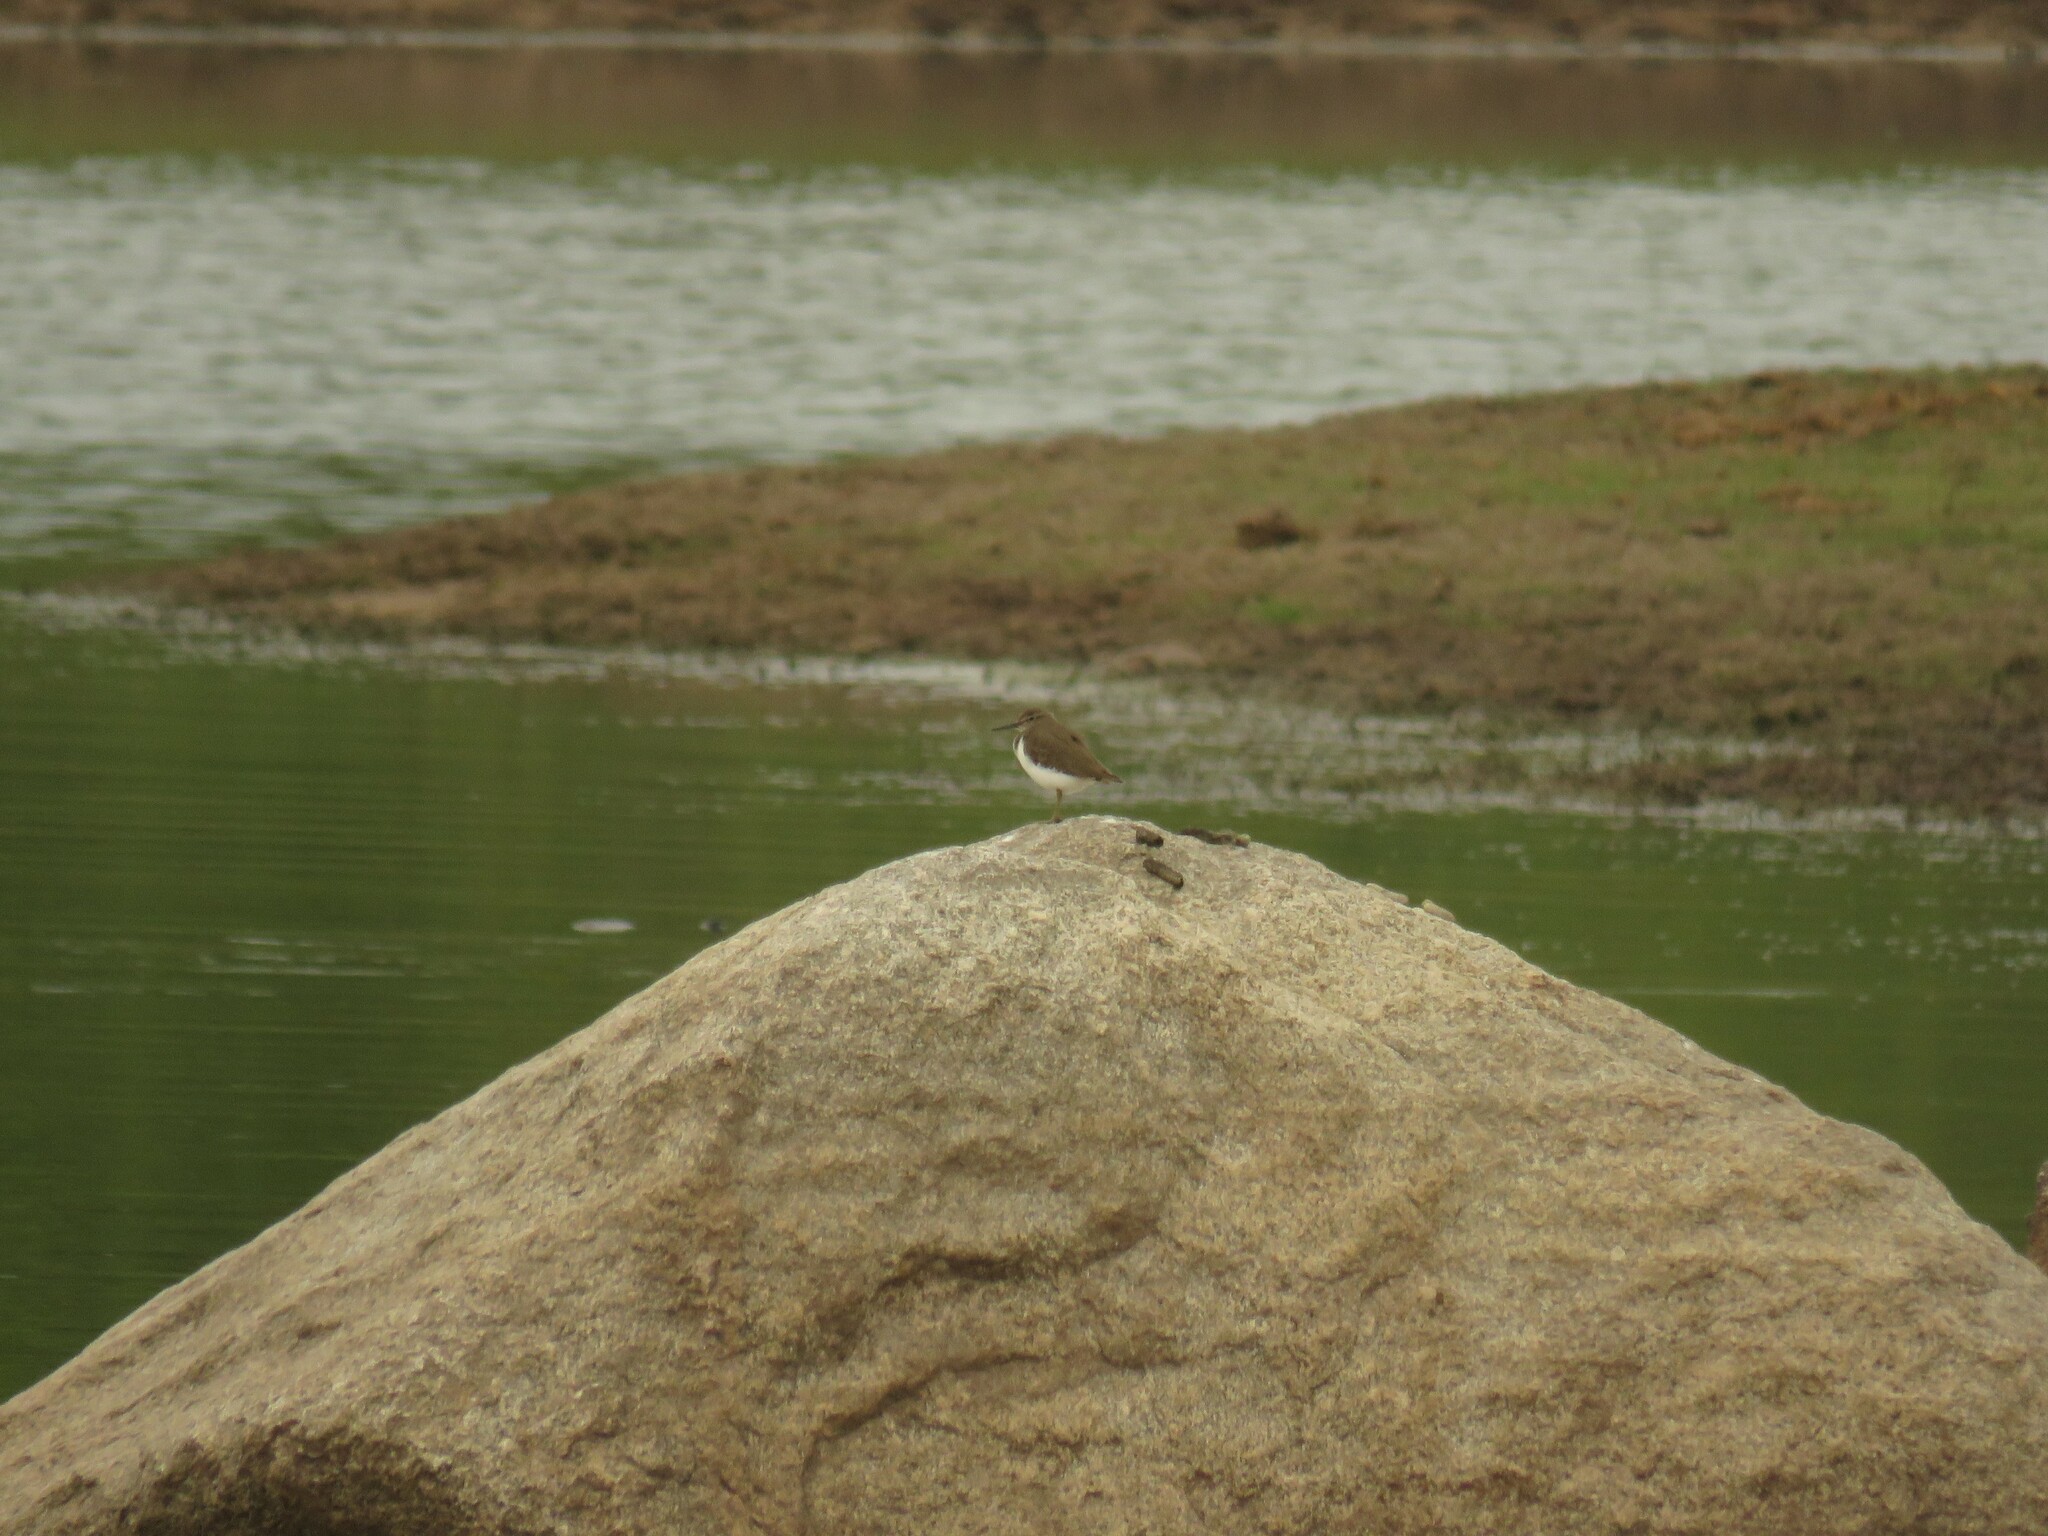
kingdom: Animalia
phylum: Chordata
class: Aves
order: Charadriiformes
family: Scolopacidae
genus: Actitis
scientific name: Actitis hypoleucos
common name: Common sandpiper
